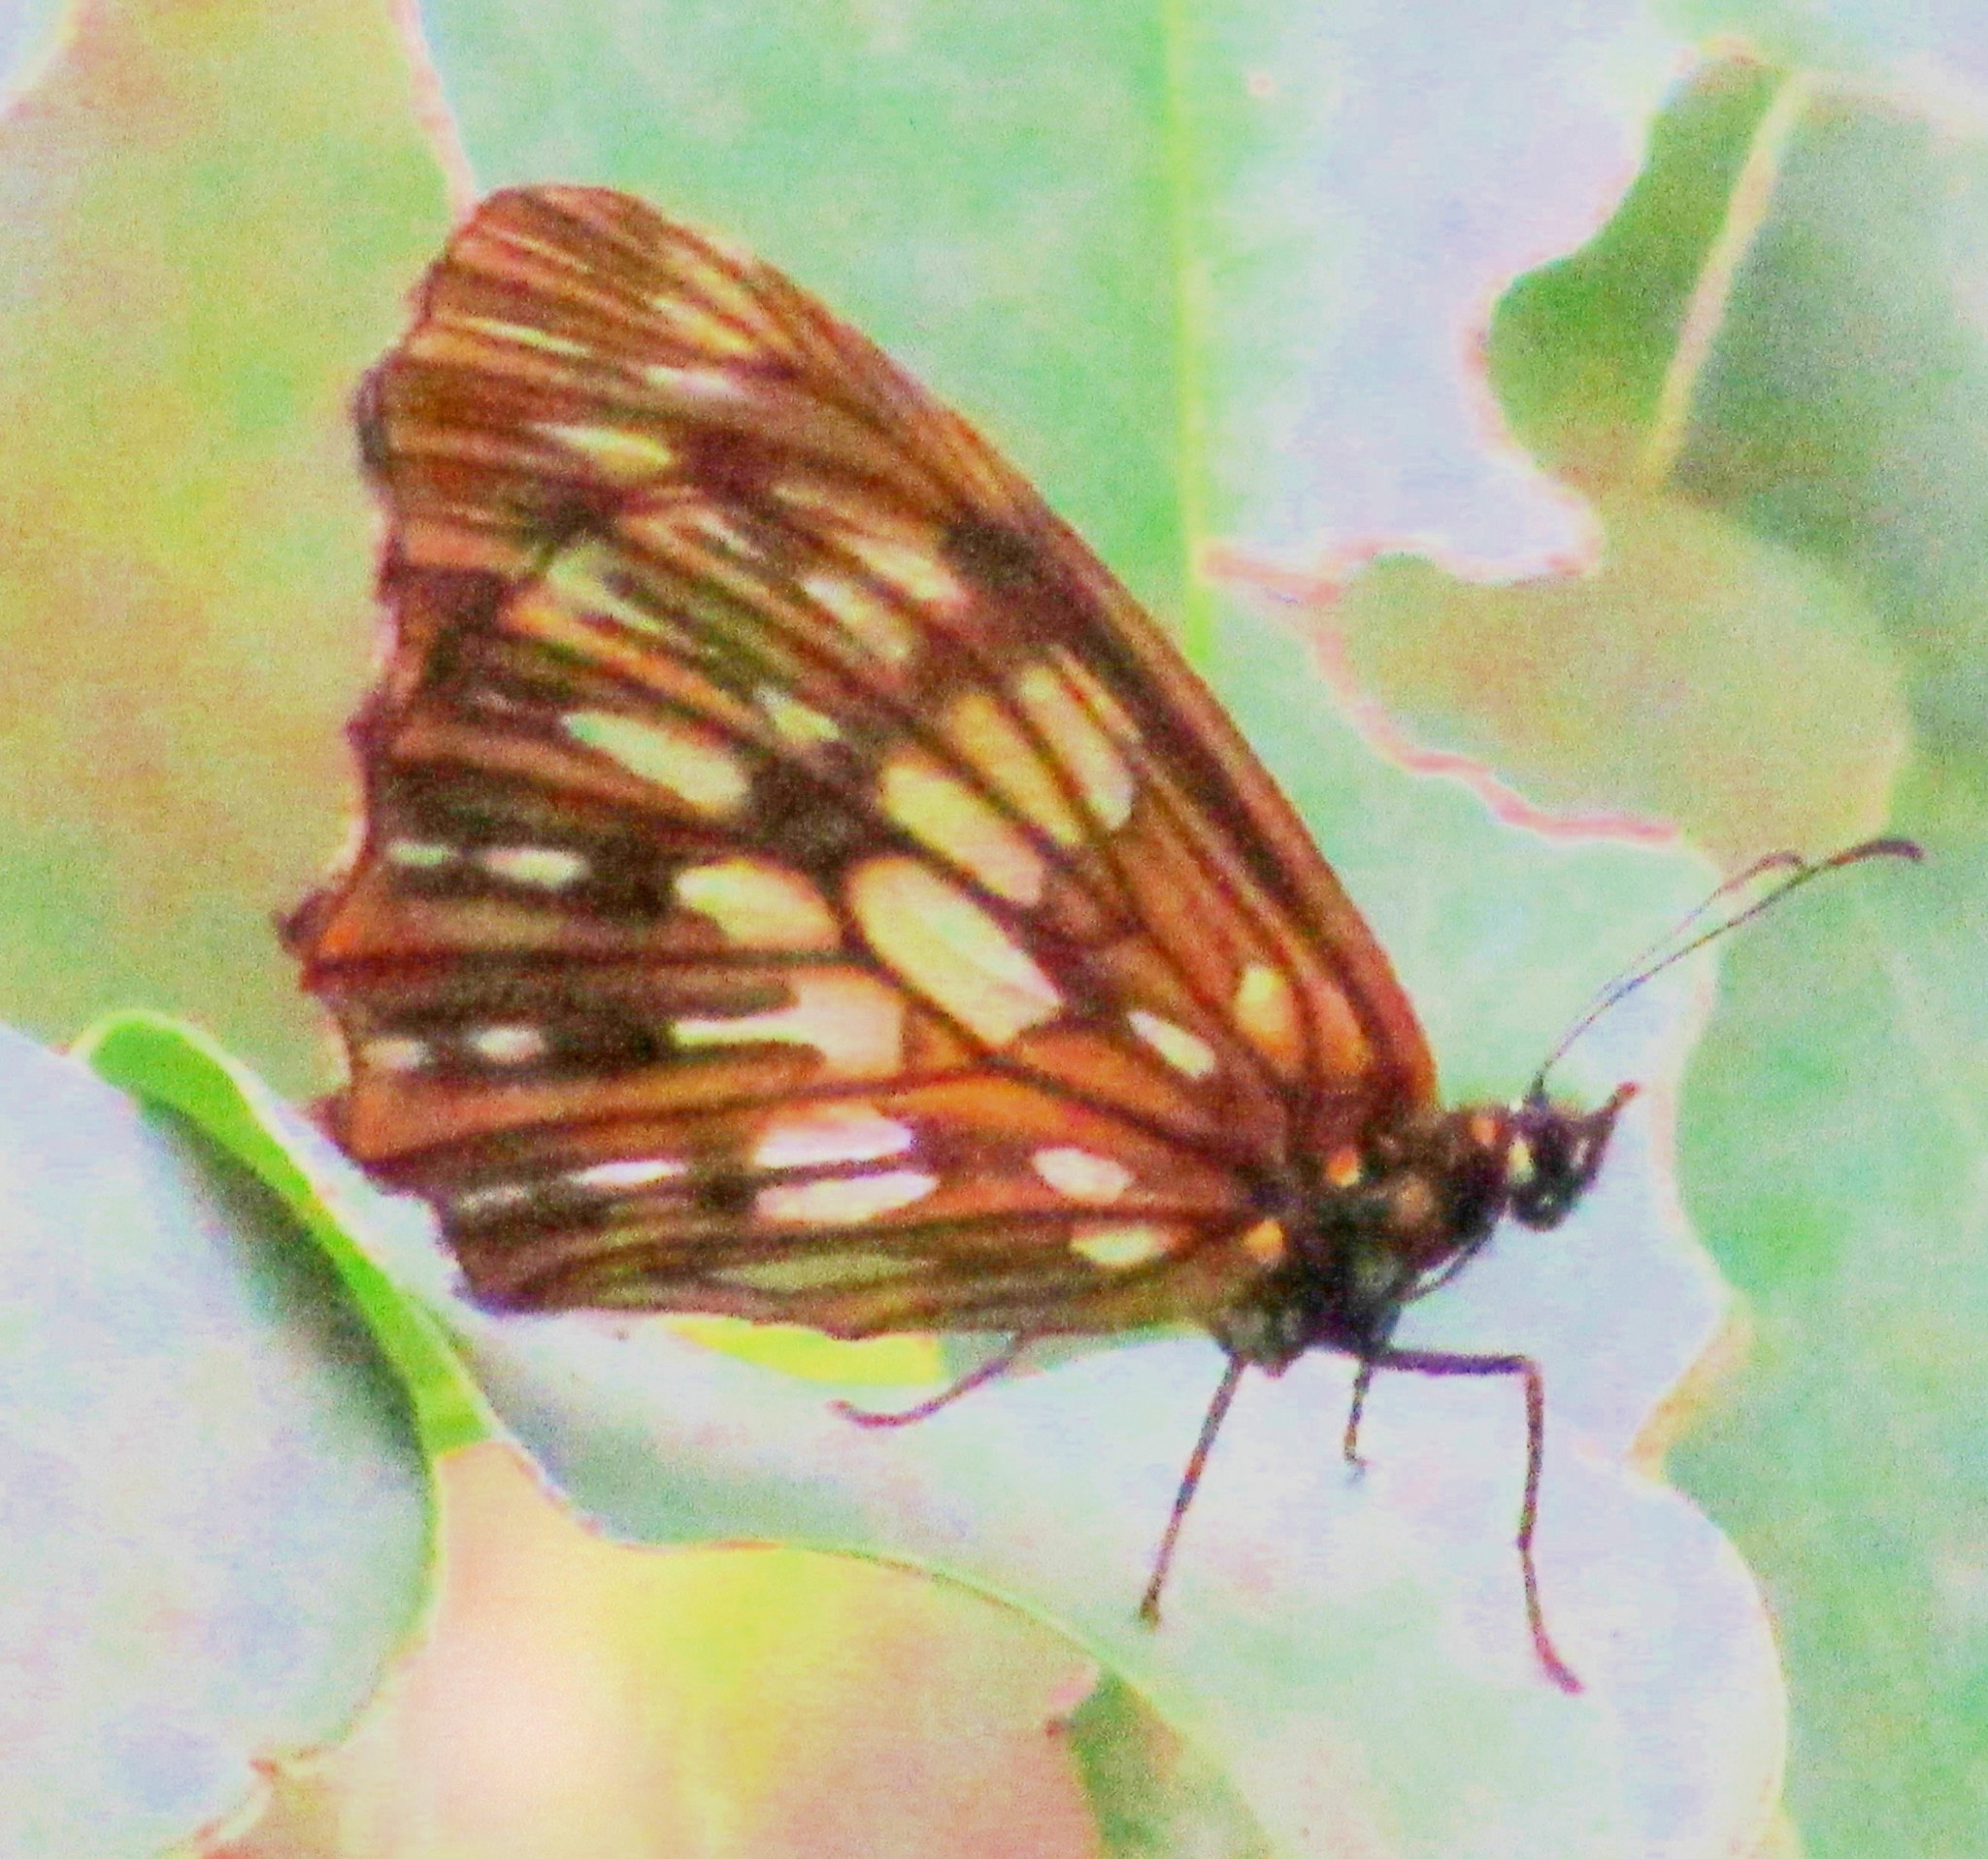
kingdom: Animalia
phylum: Arthropoda
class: Insecta
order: Lepidoptera
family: Nymphalidae
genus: Eteona
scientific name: Eteona tisiphone
